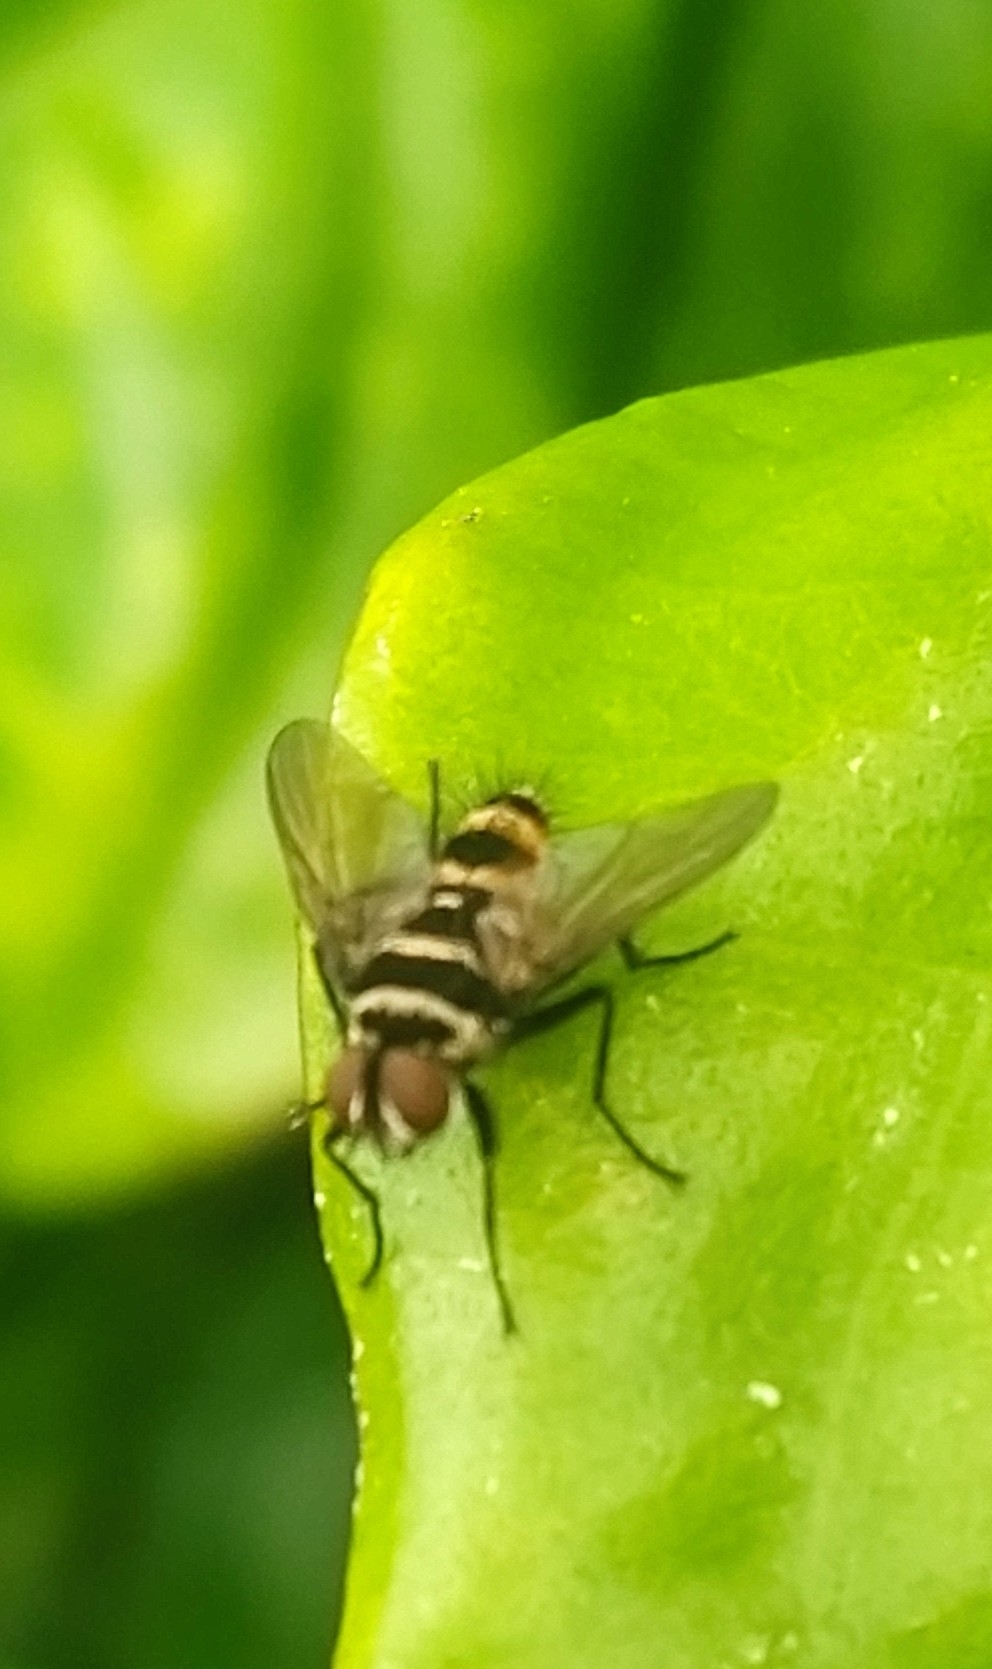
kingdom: Animalia
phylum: Arthropoda
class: Insecta
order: Diptera
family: Tachinidae
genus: Trigonospila
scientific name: Trigonospila brevifacies
